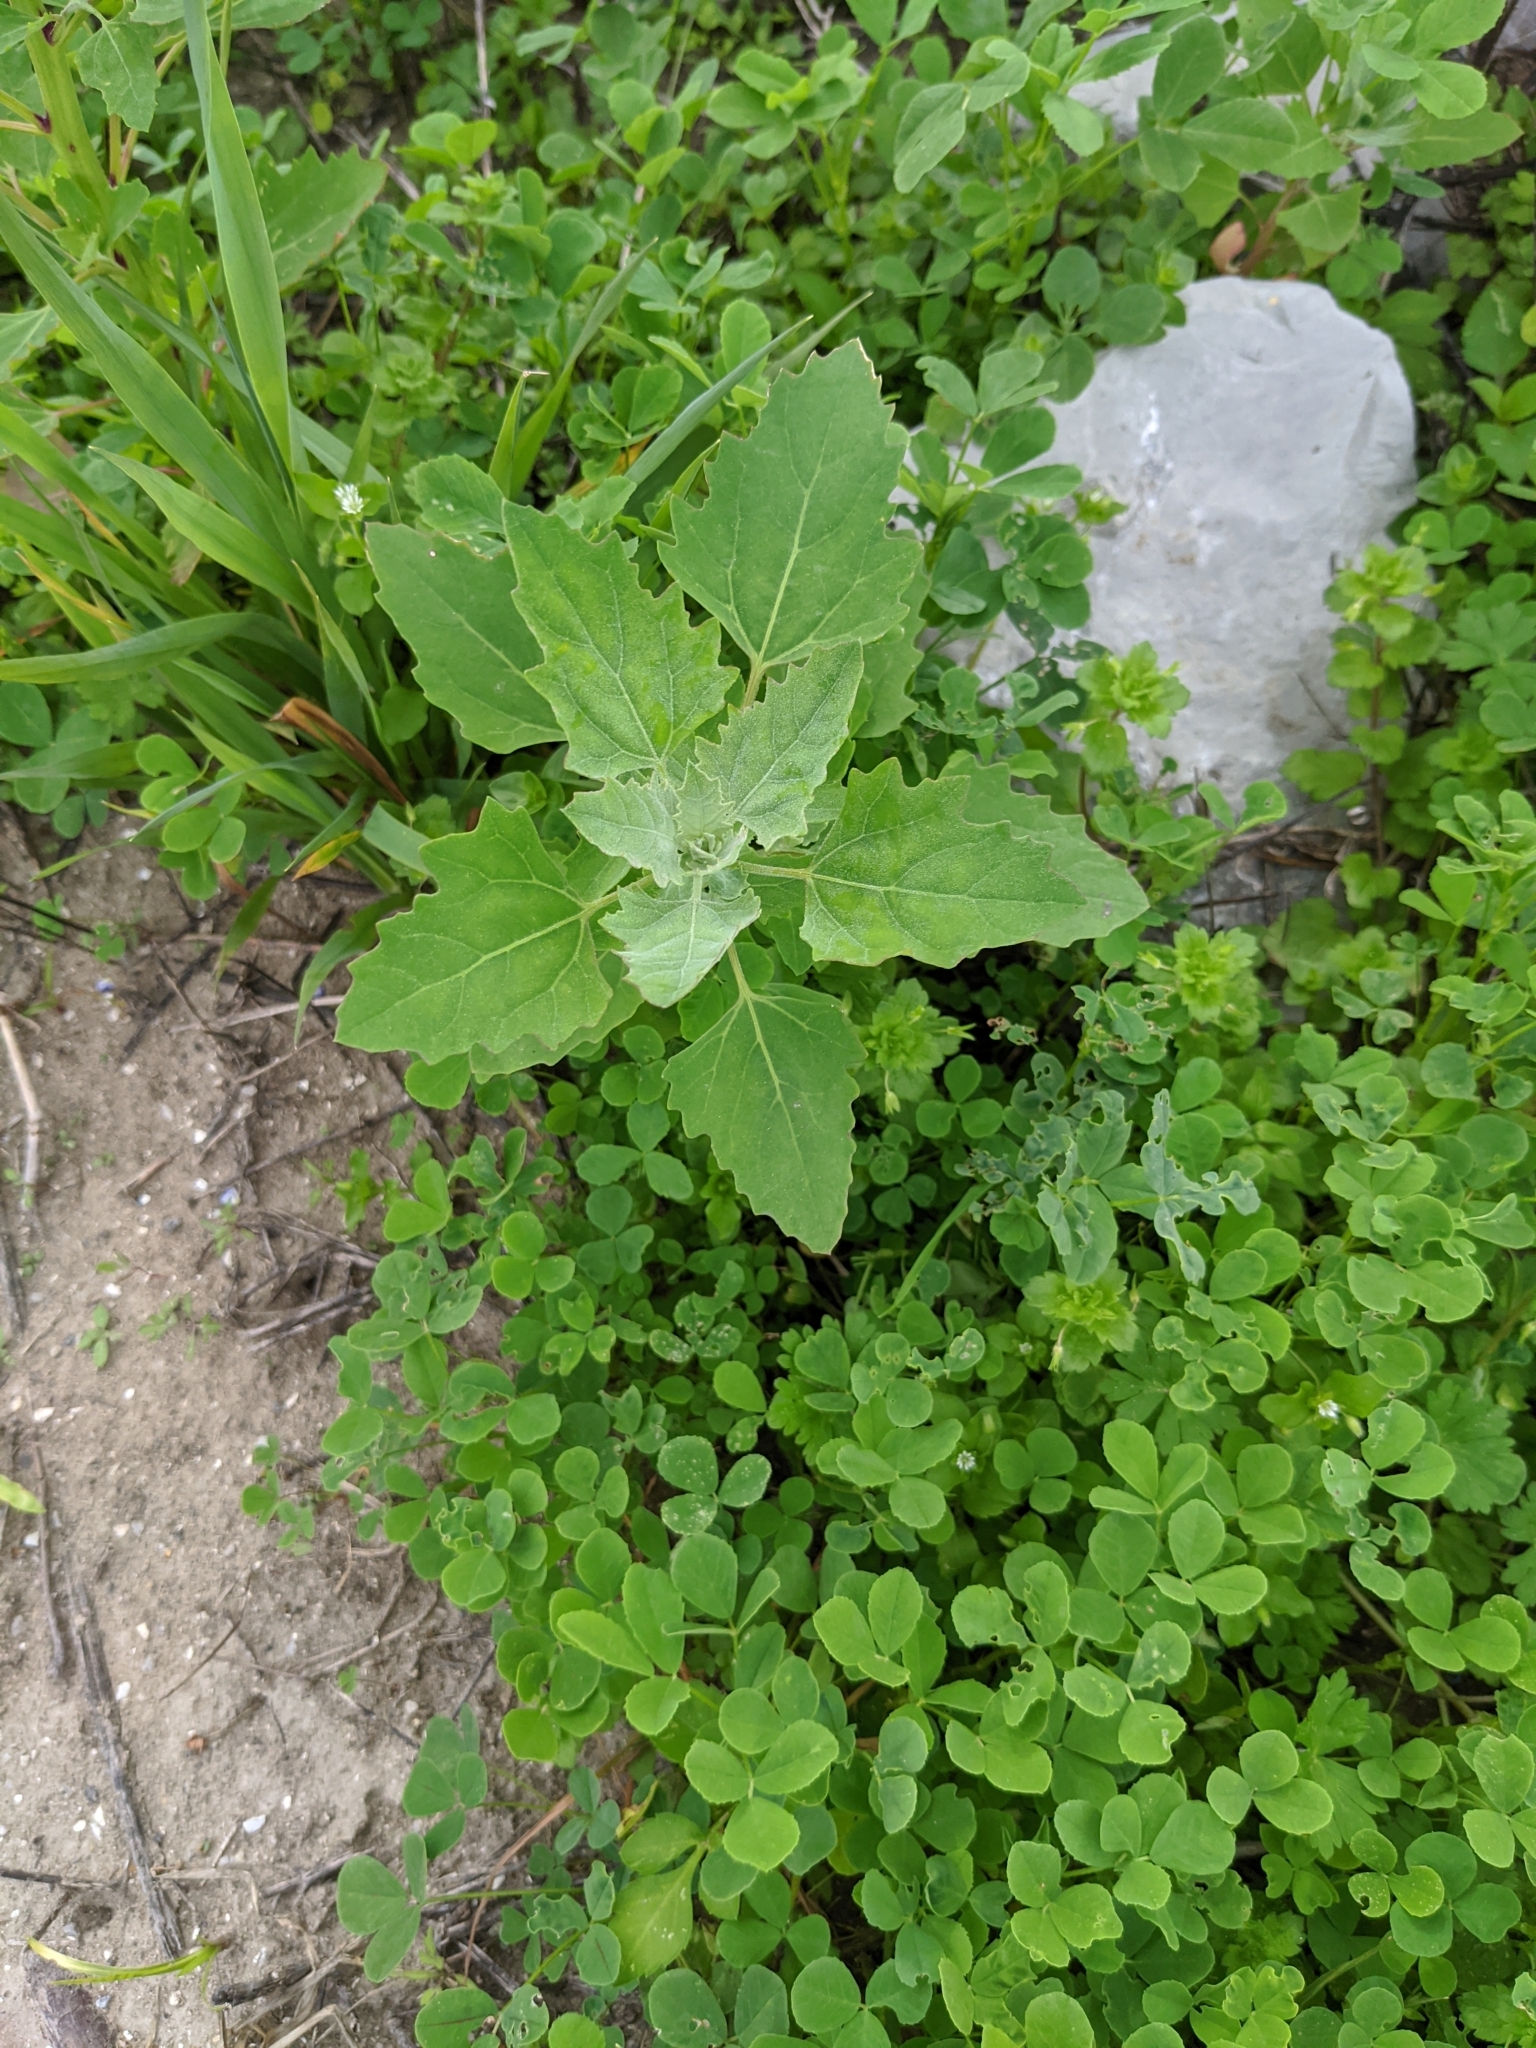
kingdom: Plantae
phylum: Tracheophyta
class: Magnoliopsida
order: Caryophyllales
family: Amaranthaceae
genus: Chenopodium
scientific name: Chenopodium album
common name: Fat-hen
